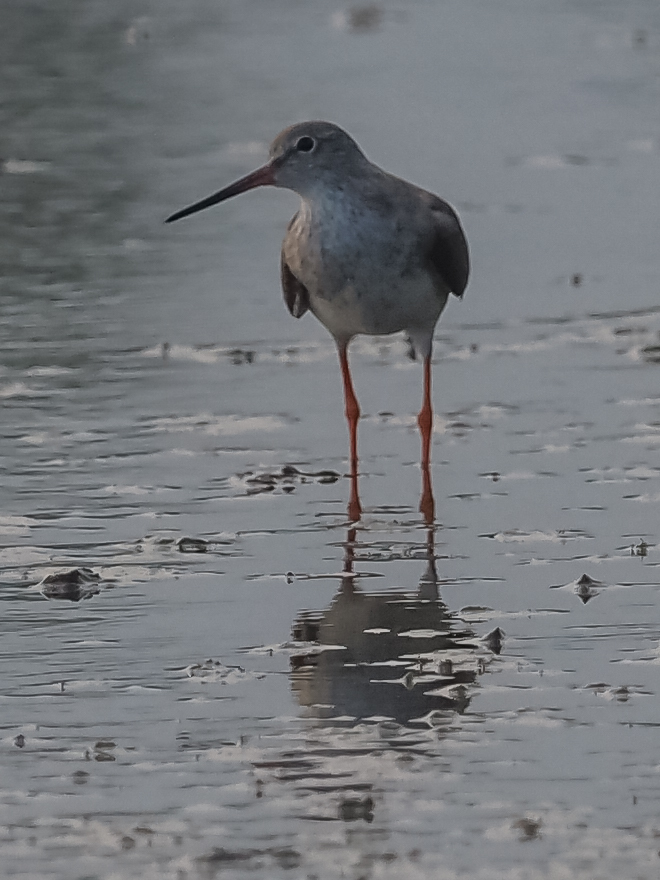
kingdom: Animalia
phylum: Chordata
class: Aves
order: Charadriiformes
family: Scolopacidae
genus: Tringa
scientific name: Tringa totanus
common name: Common redshank
